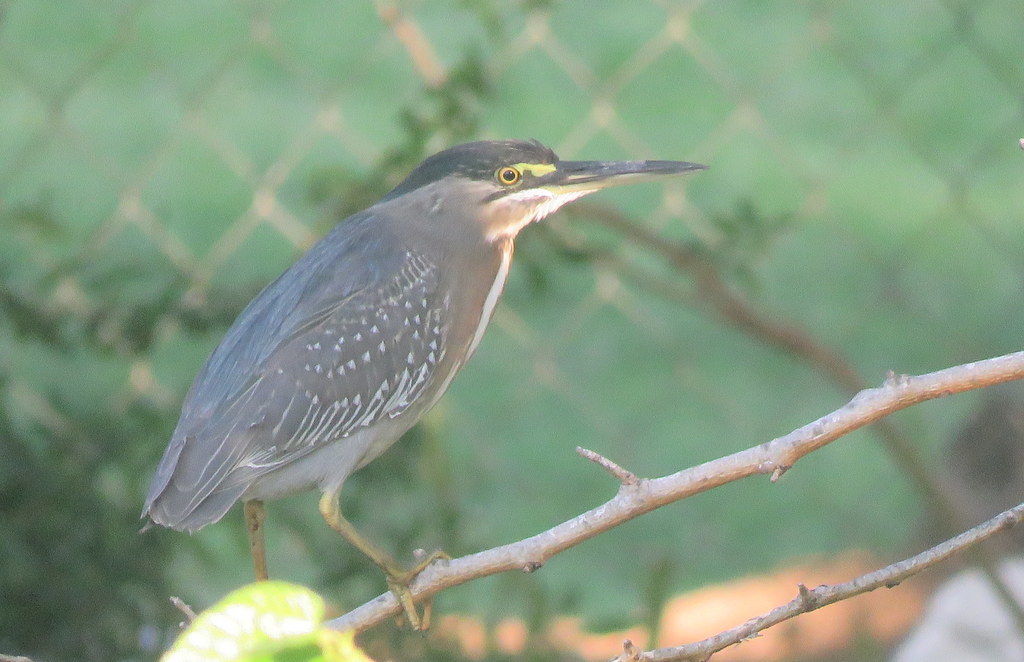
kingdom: Animalia
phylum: Chordata
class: Aves
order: Pelecaniformes
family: Ardeidae
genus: Butorides
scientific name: Butorides striata
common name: Striated heron
